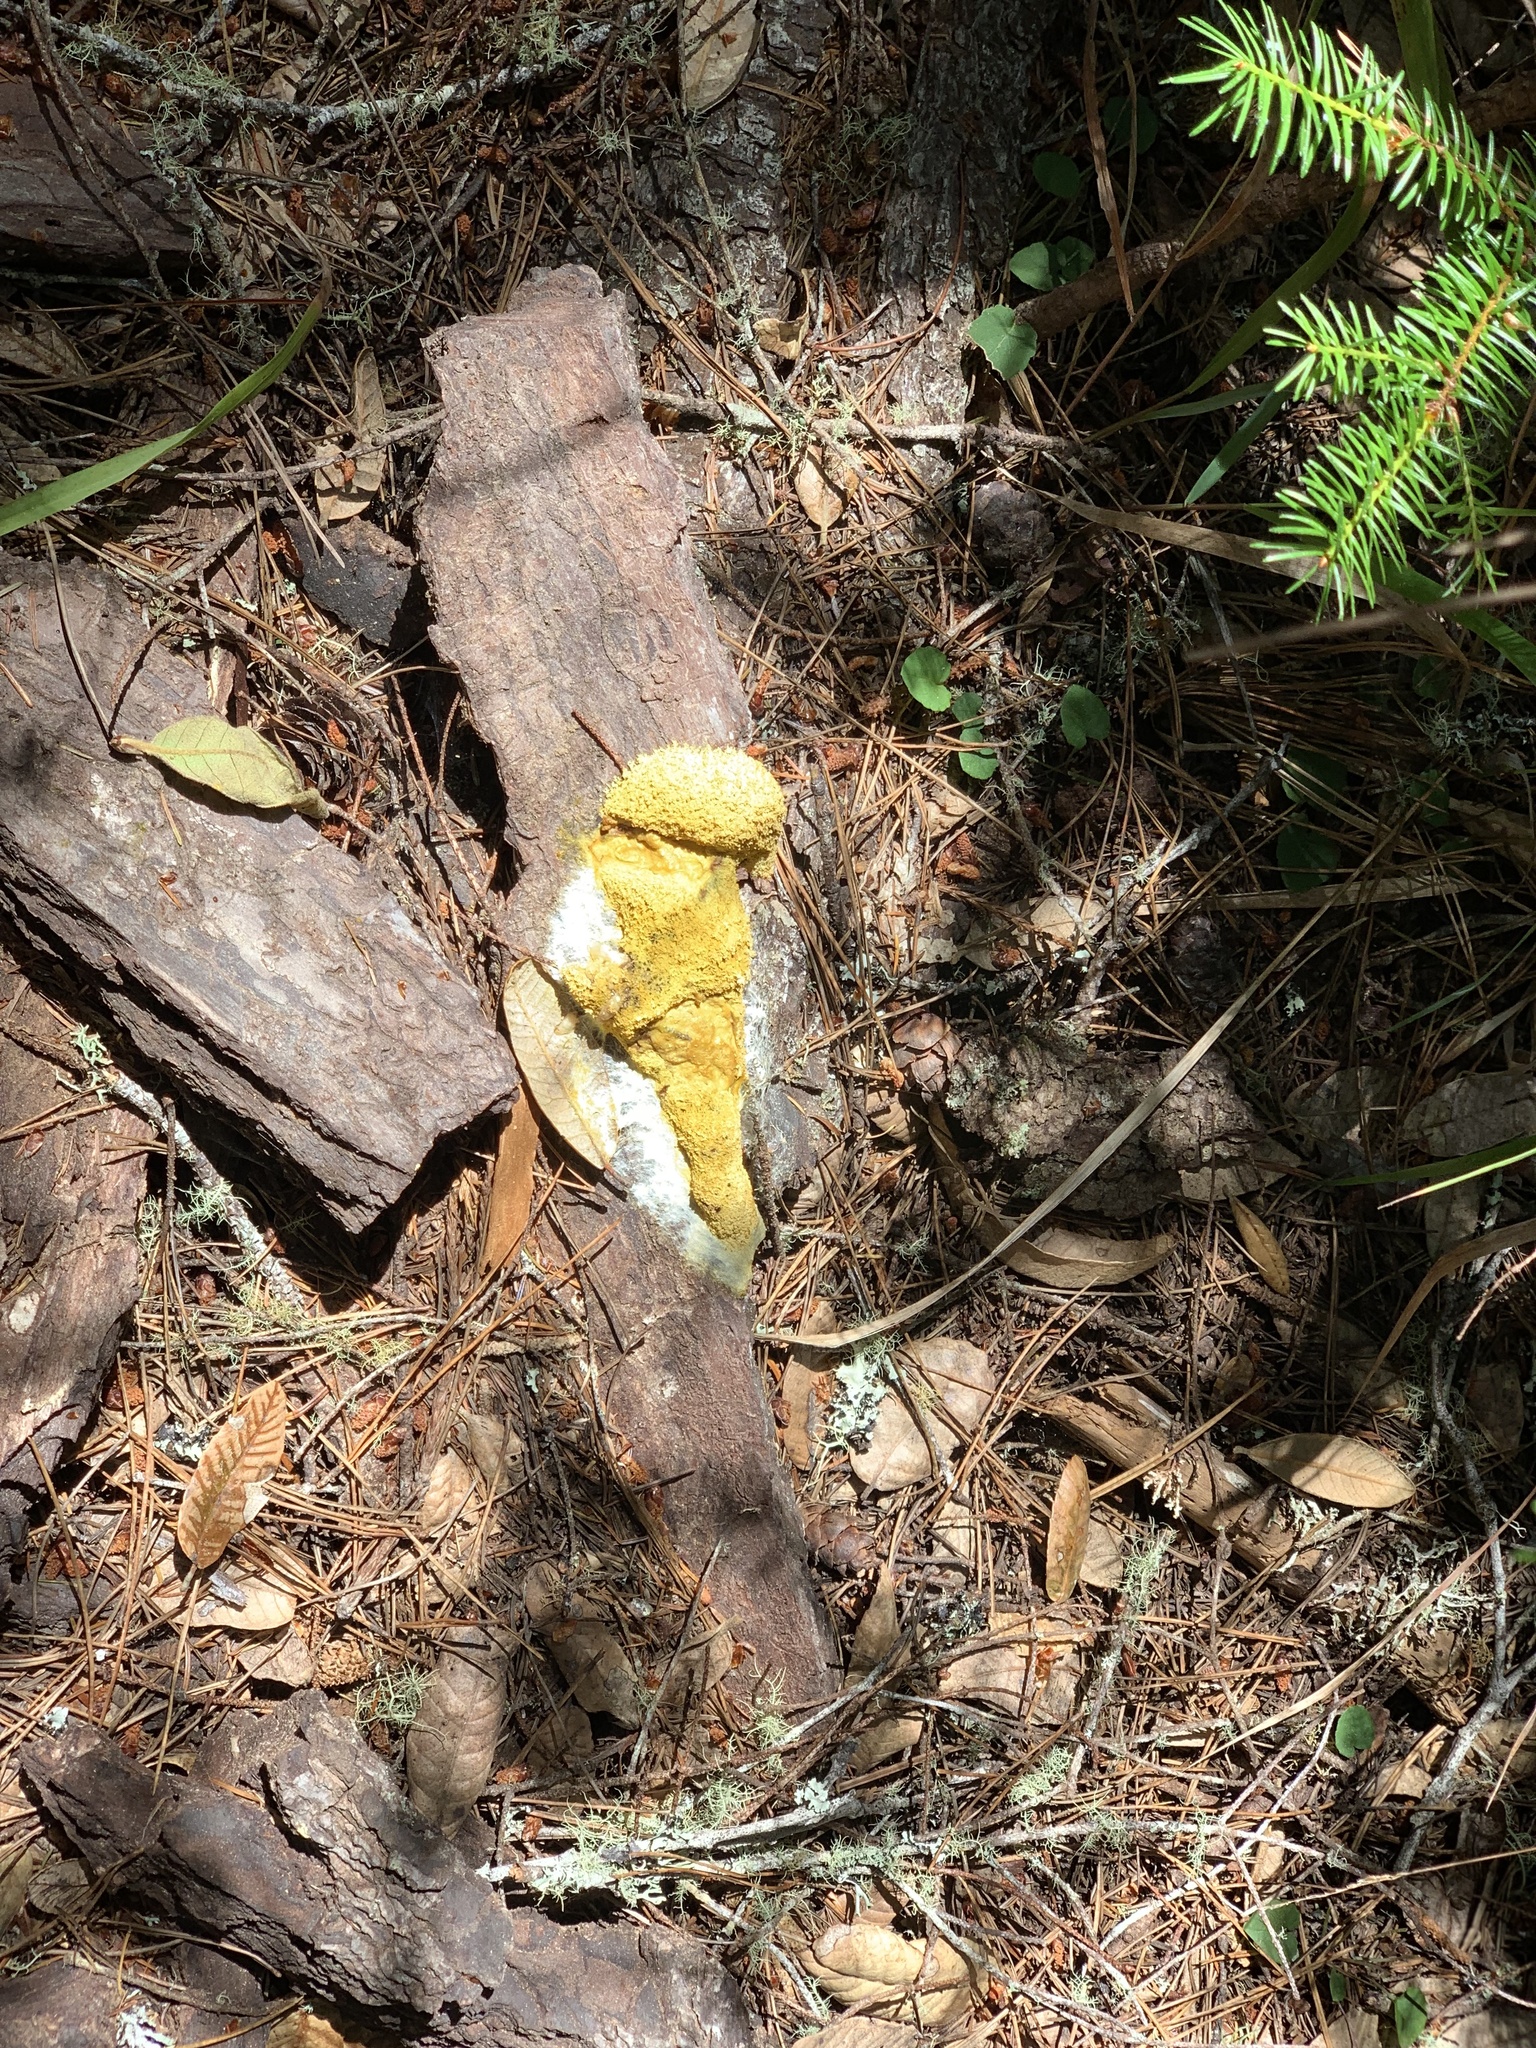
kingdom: Protozoa
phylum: Mycetozoa
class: Myxomycetes
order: Physarales
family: Physaraceae
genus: Fuligo
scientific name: Fuligo septica
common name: Dog vomit slime mold
